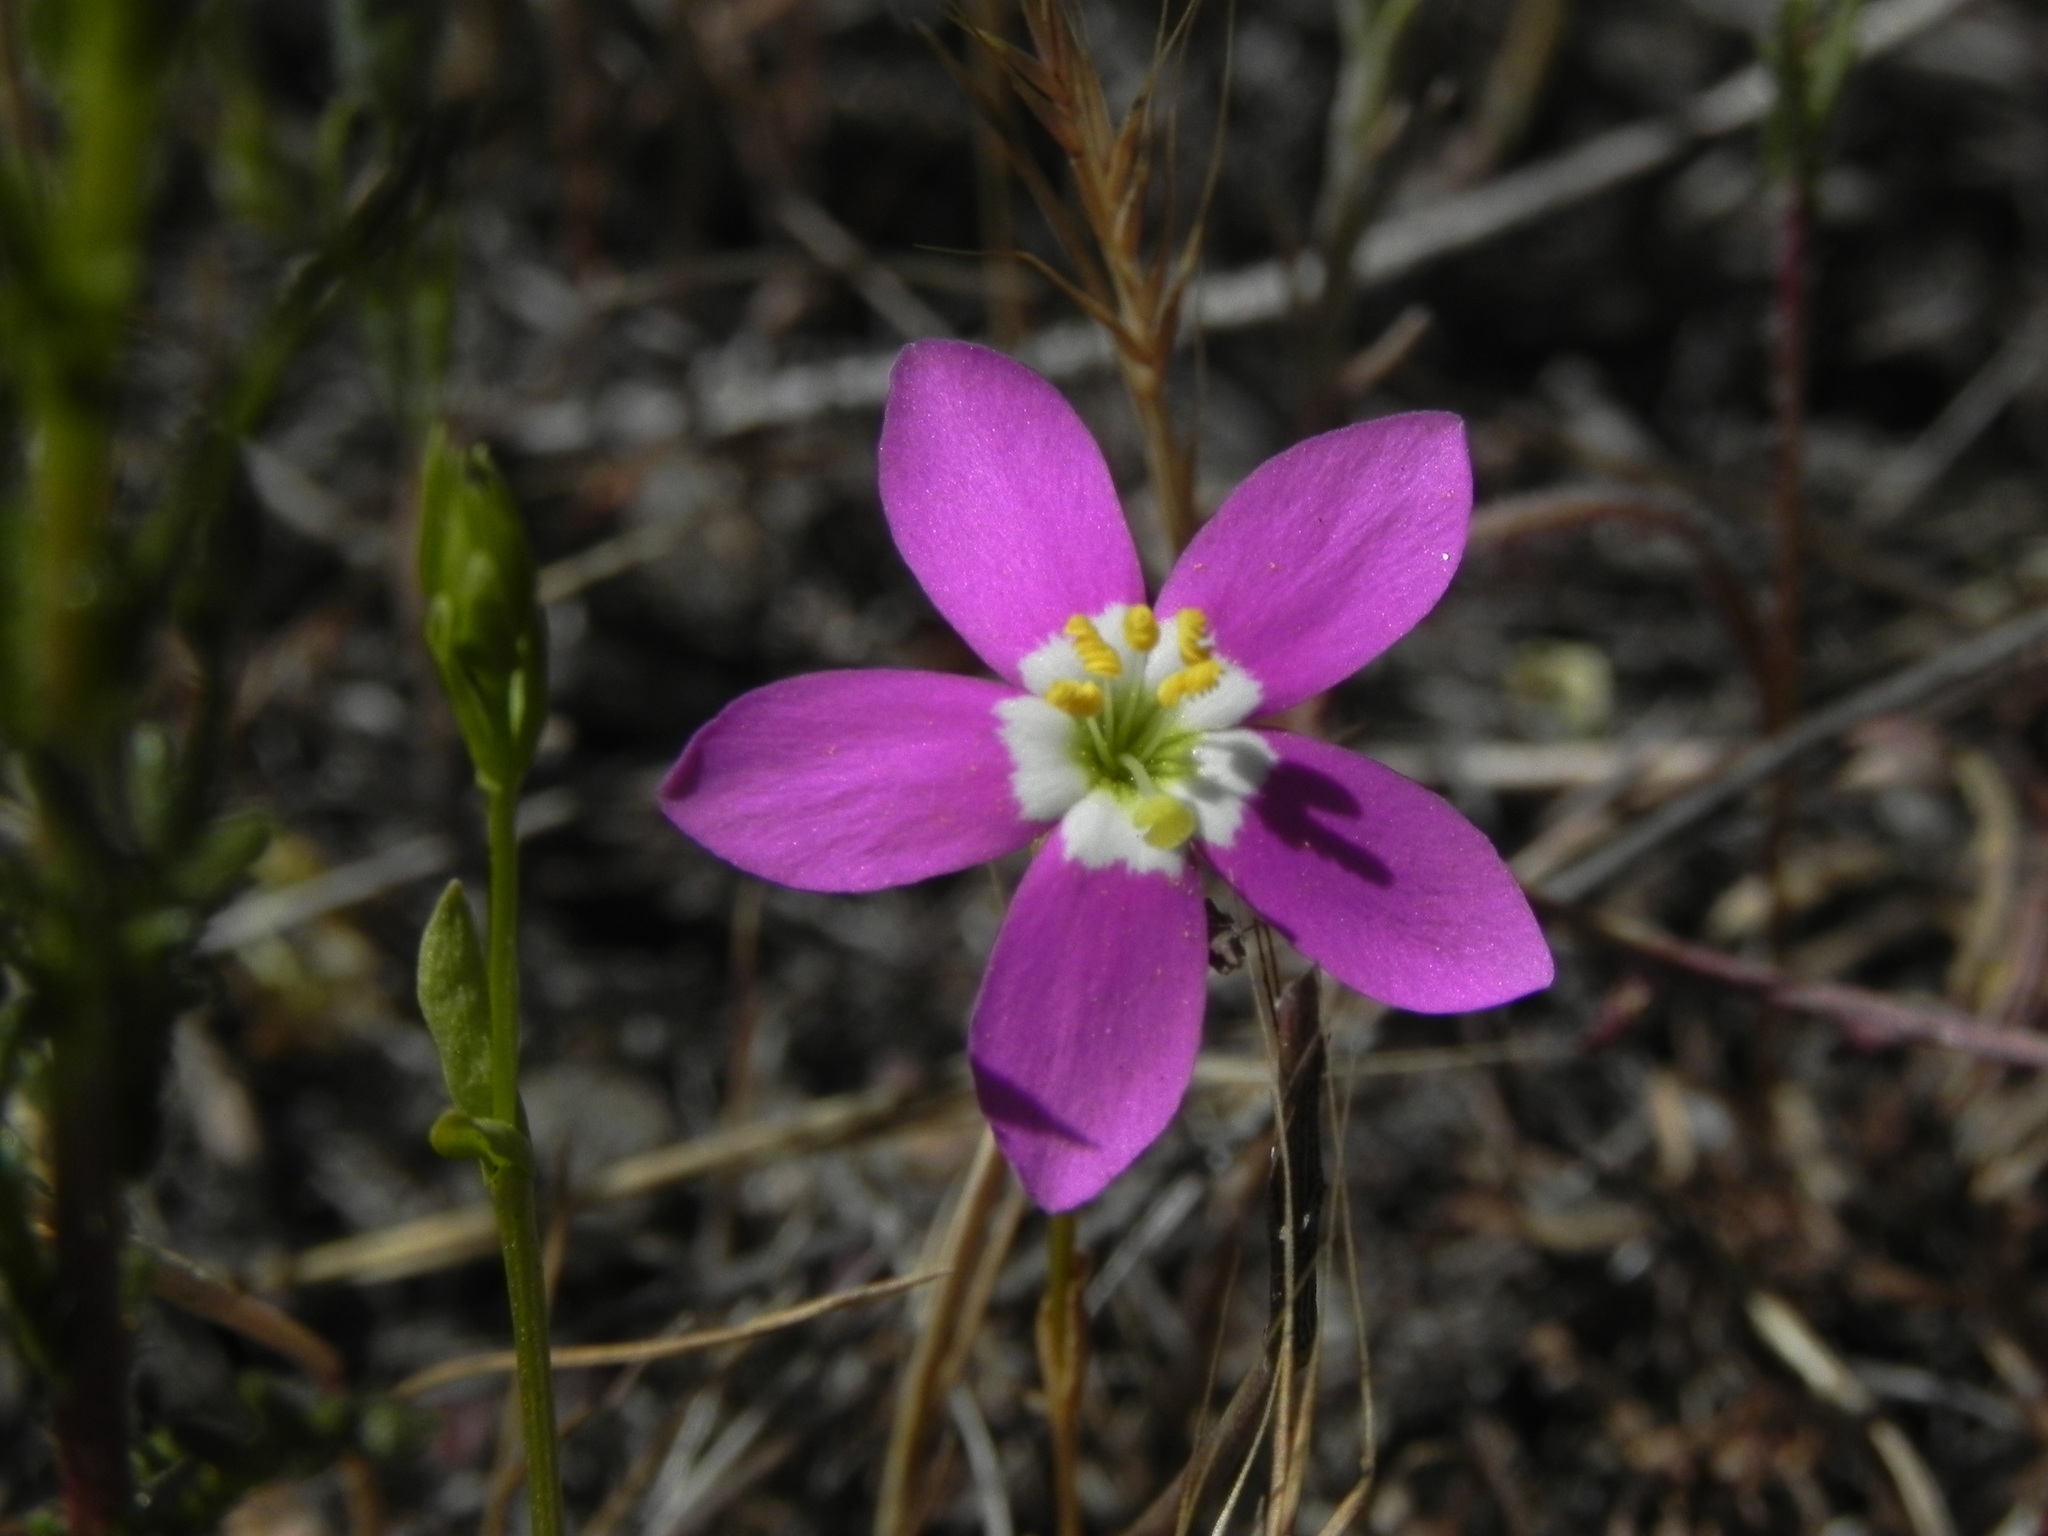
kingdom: Plantae
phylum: Tracheophyta
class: Magnoliopsida
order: Gentianales
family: Gentianaceae
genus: Zeltnera
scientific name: Zeltnera venusta
